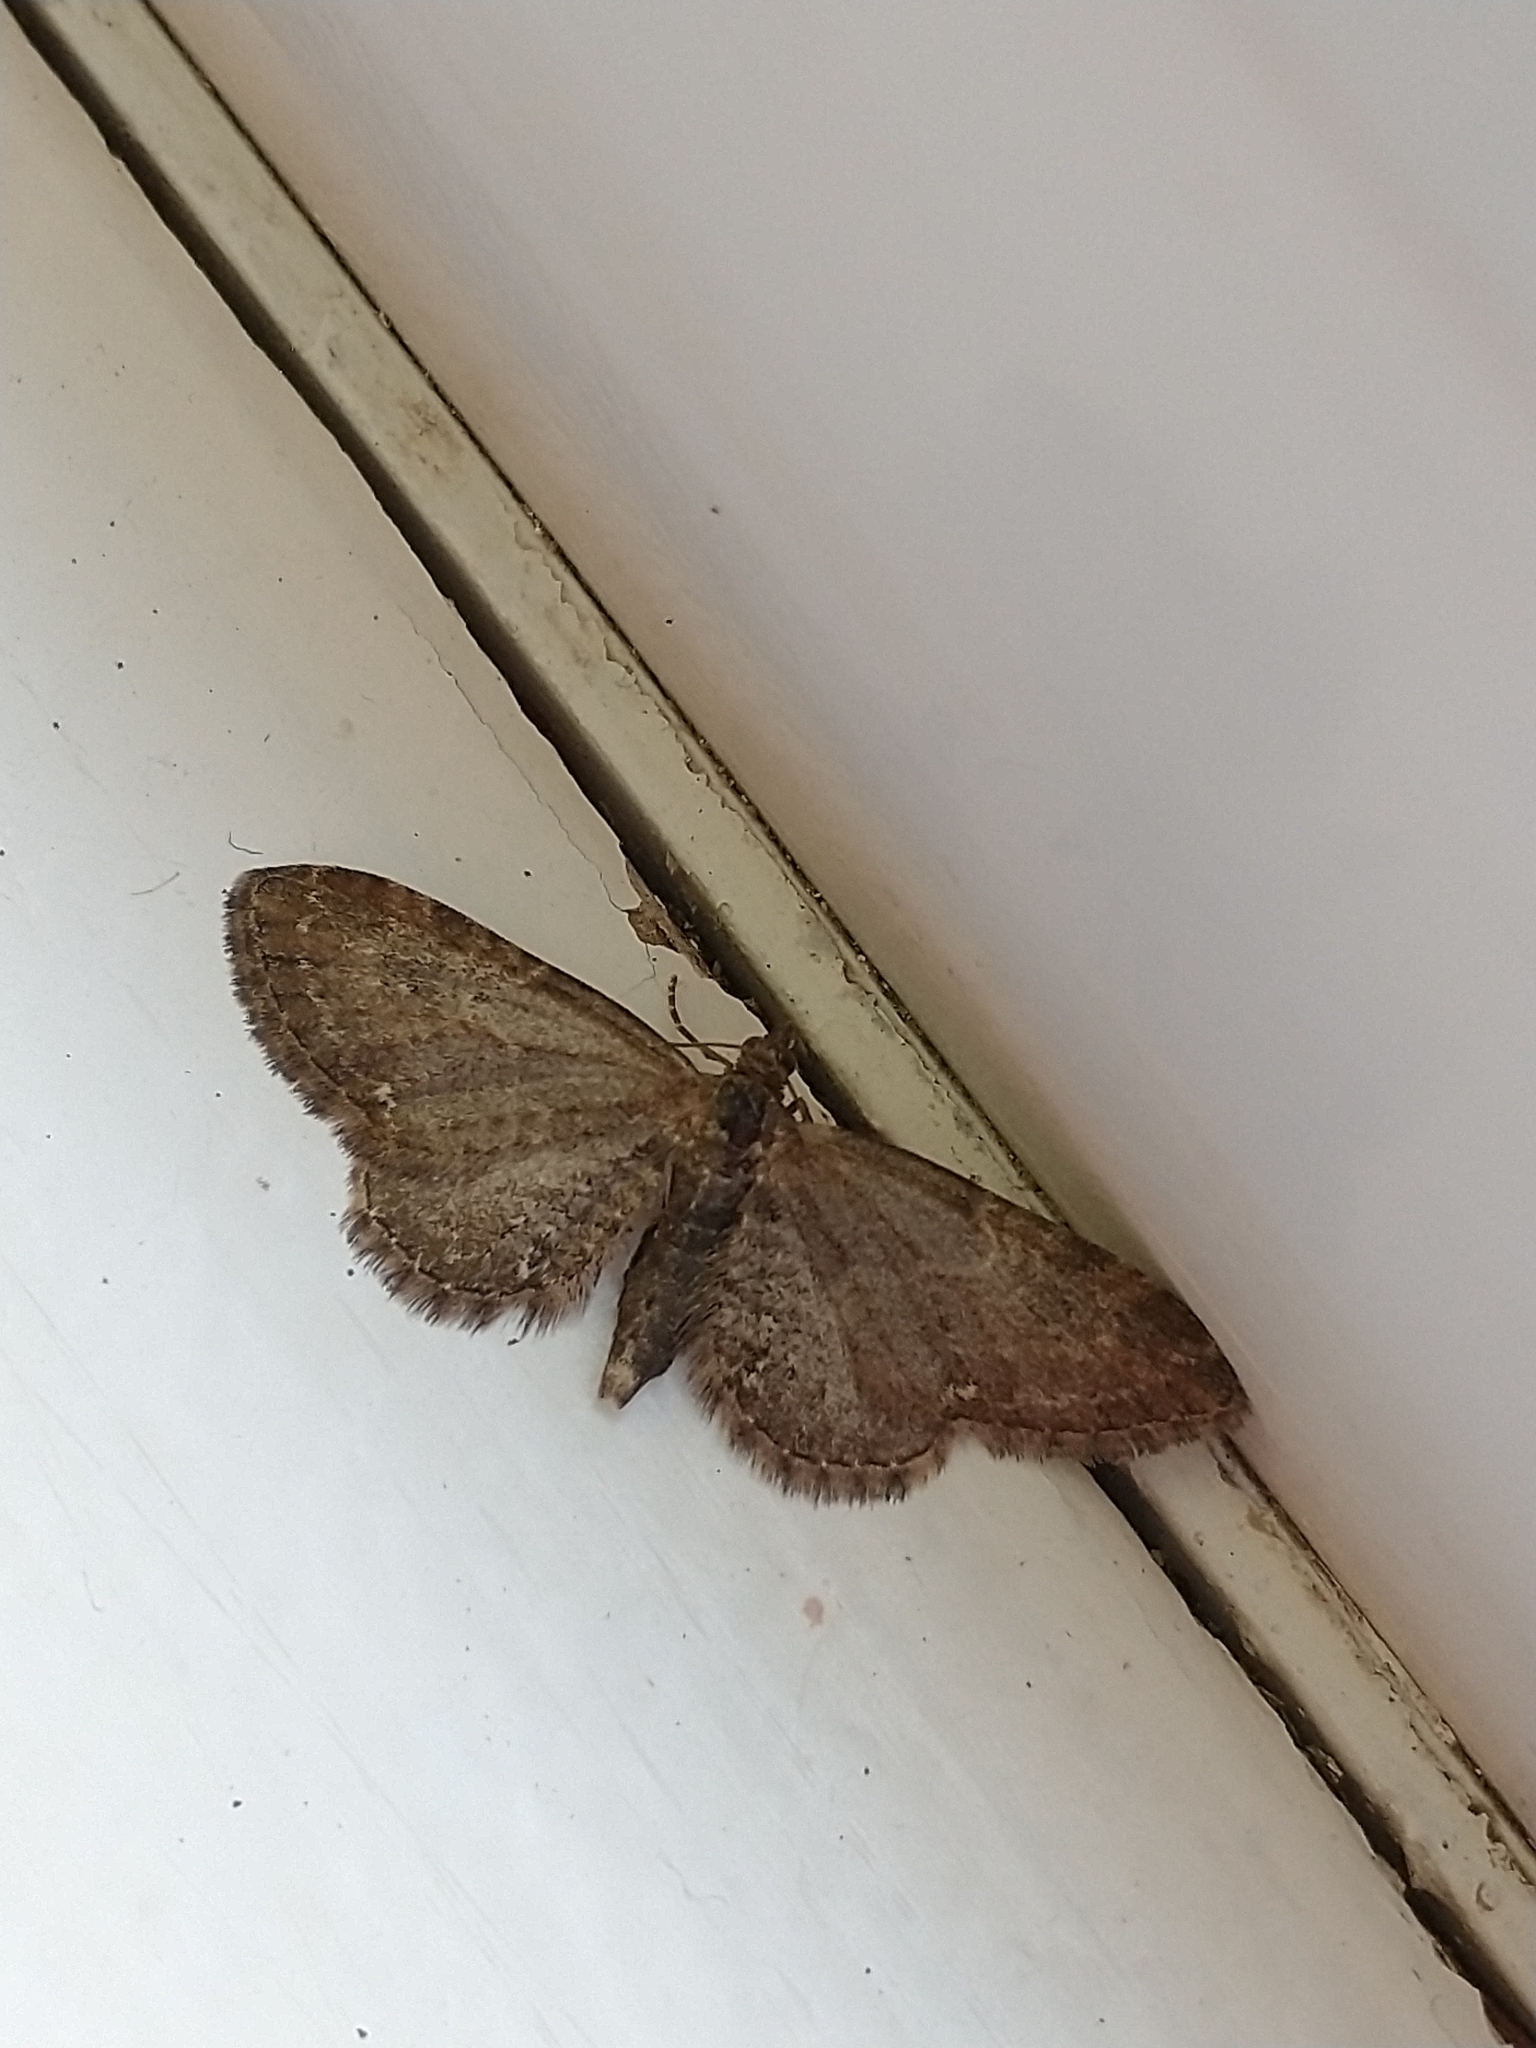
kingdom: Animalia
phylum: Arthropoda
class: Insecta
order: Lepidoptera
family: Geometridae
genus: Eupithecia
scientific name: Eupithecia vulgata
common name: Common pug
